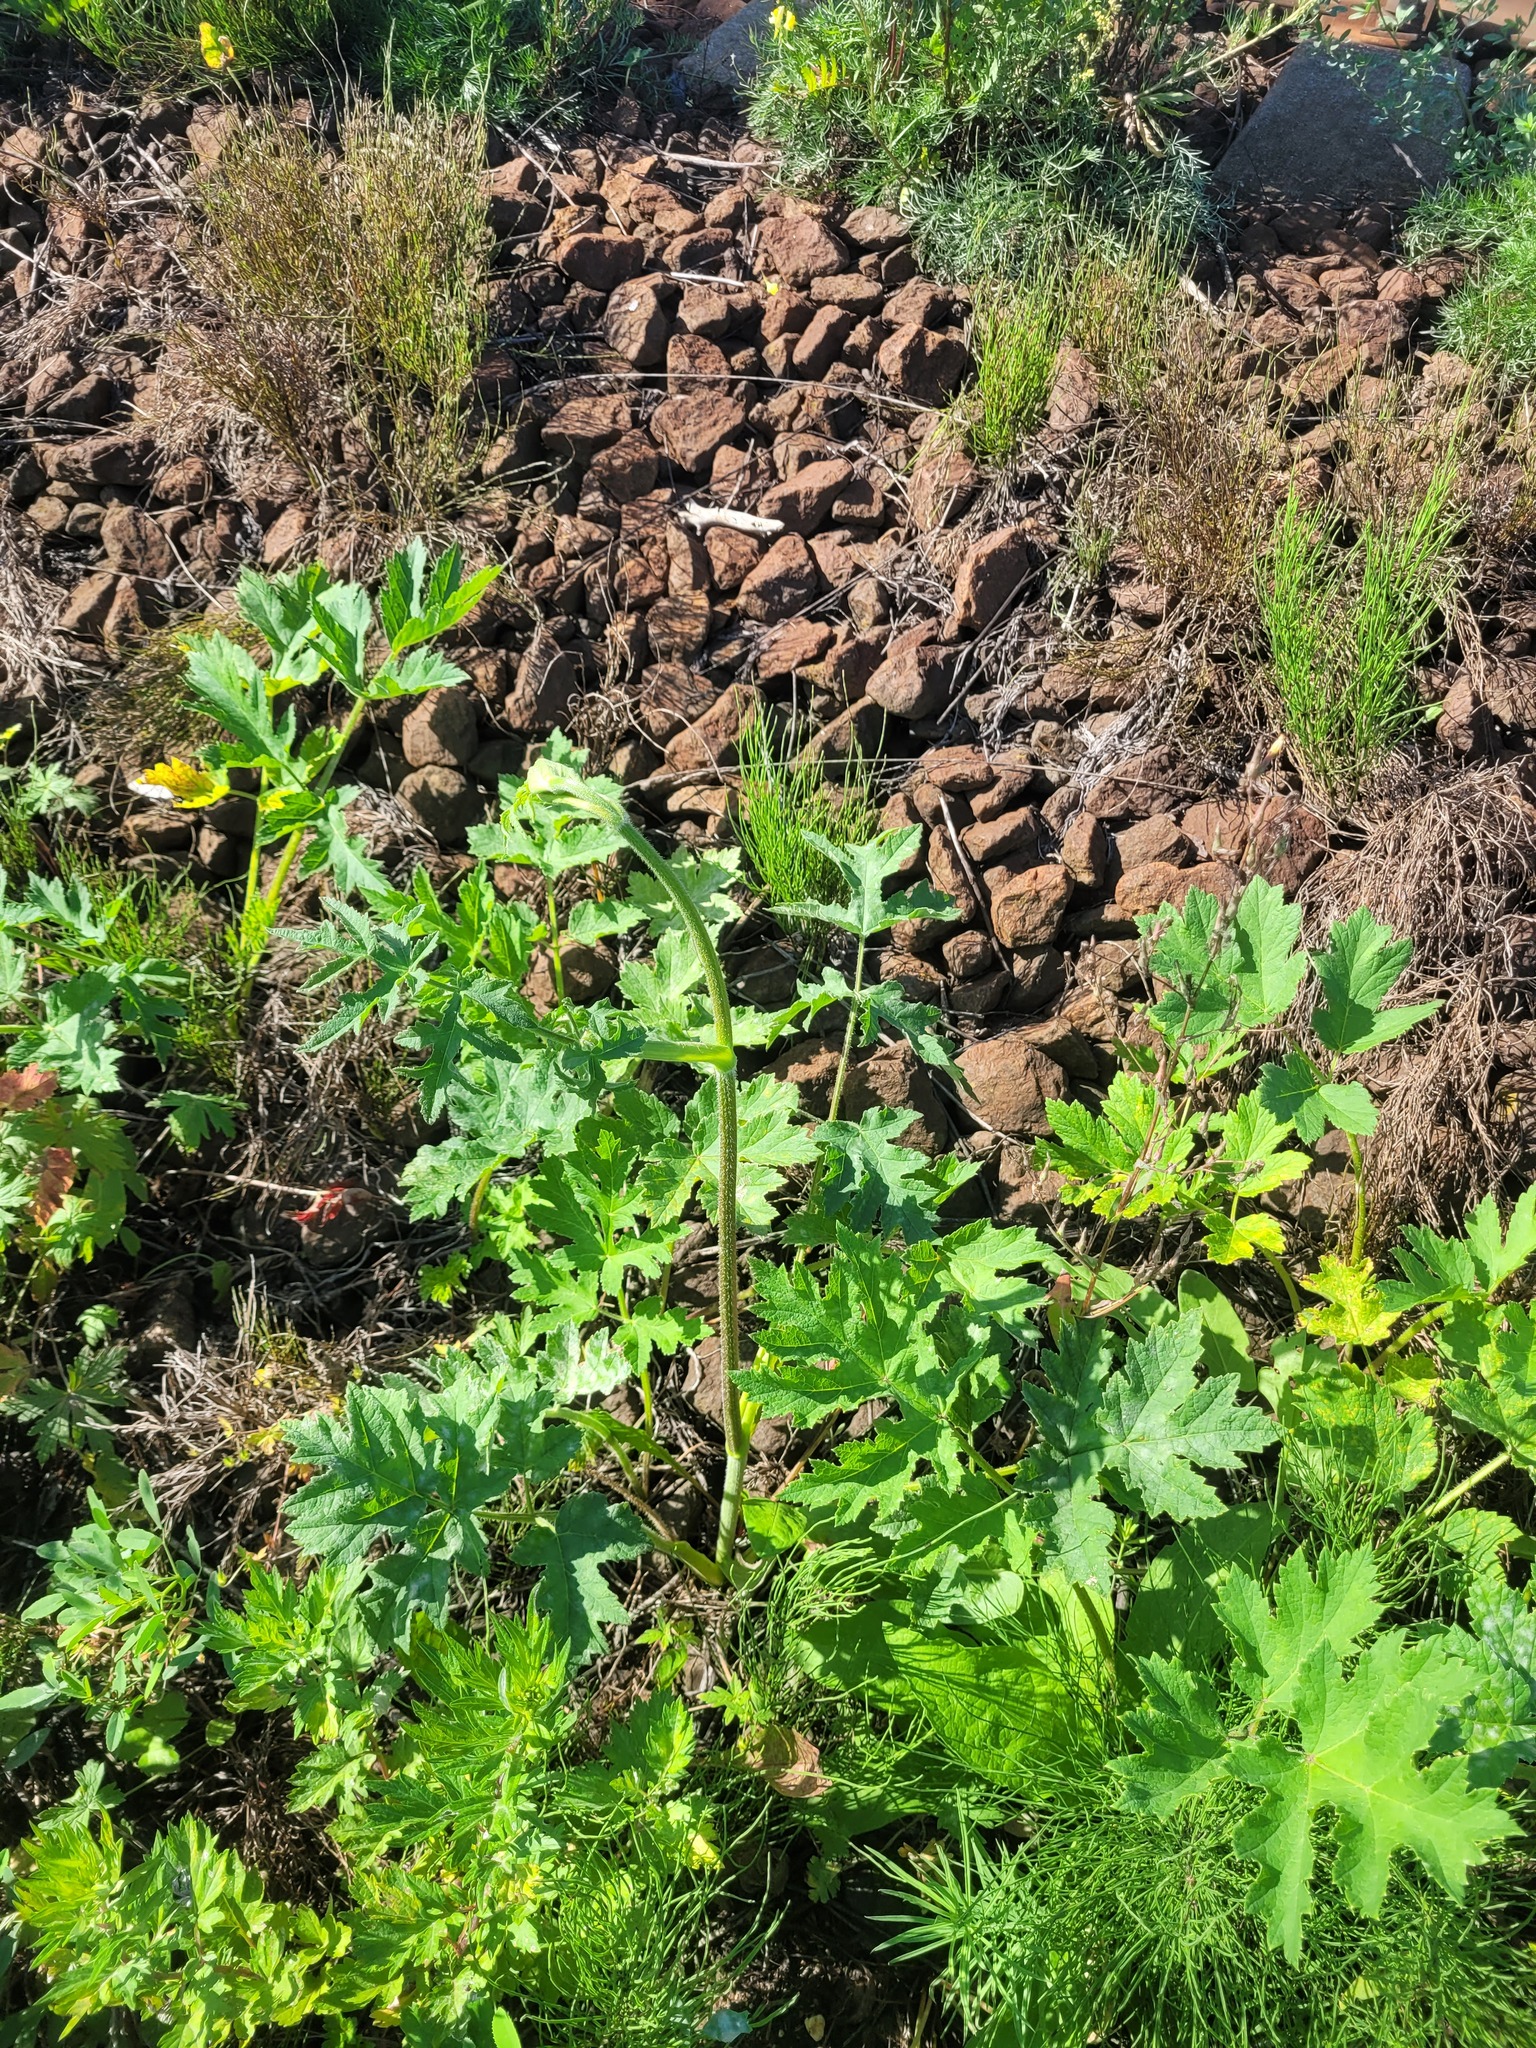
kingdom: Plantae
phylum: Tracheophyta
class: Magnoliopsida
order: Apiales
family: Apiaceae
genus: Heracleum
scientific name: Heracleum sphondylium
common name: Hogweed
